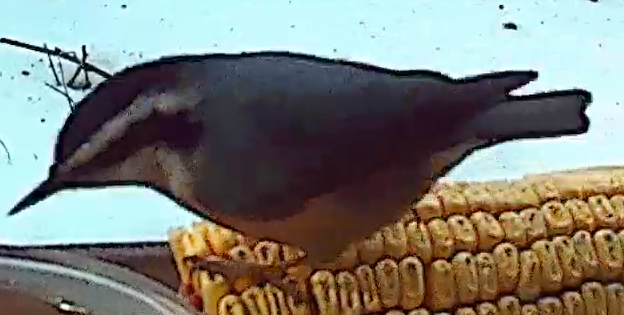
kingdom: Animalia
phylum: Chordata
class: Aves
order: Passeriformes
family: Sittidae
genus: Sitta
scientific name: Sitta canadensis
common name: Red-breasted nuthatch
